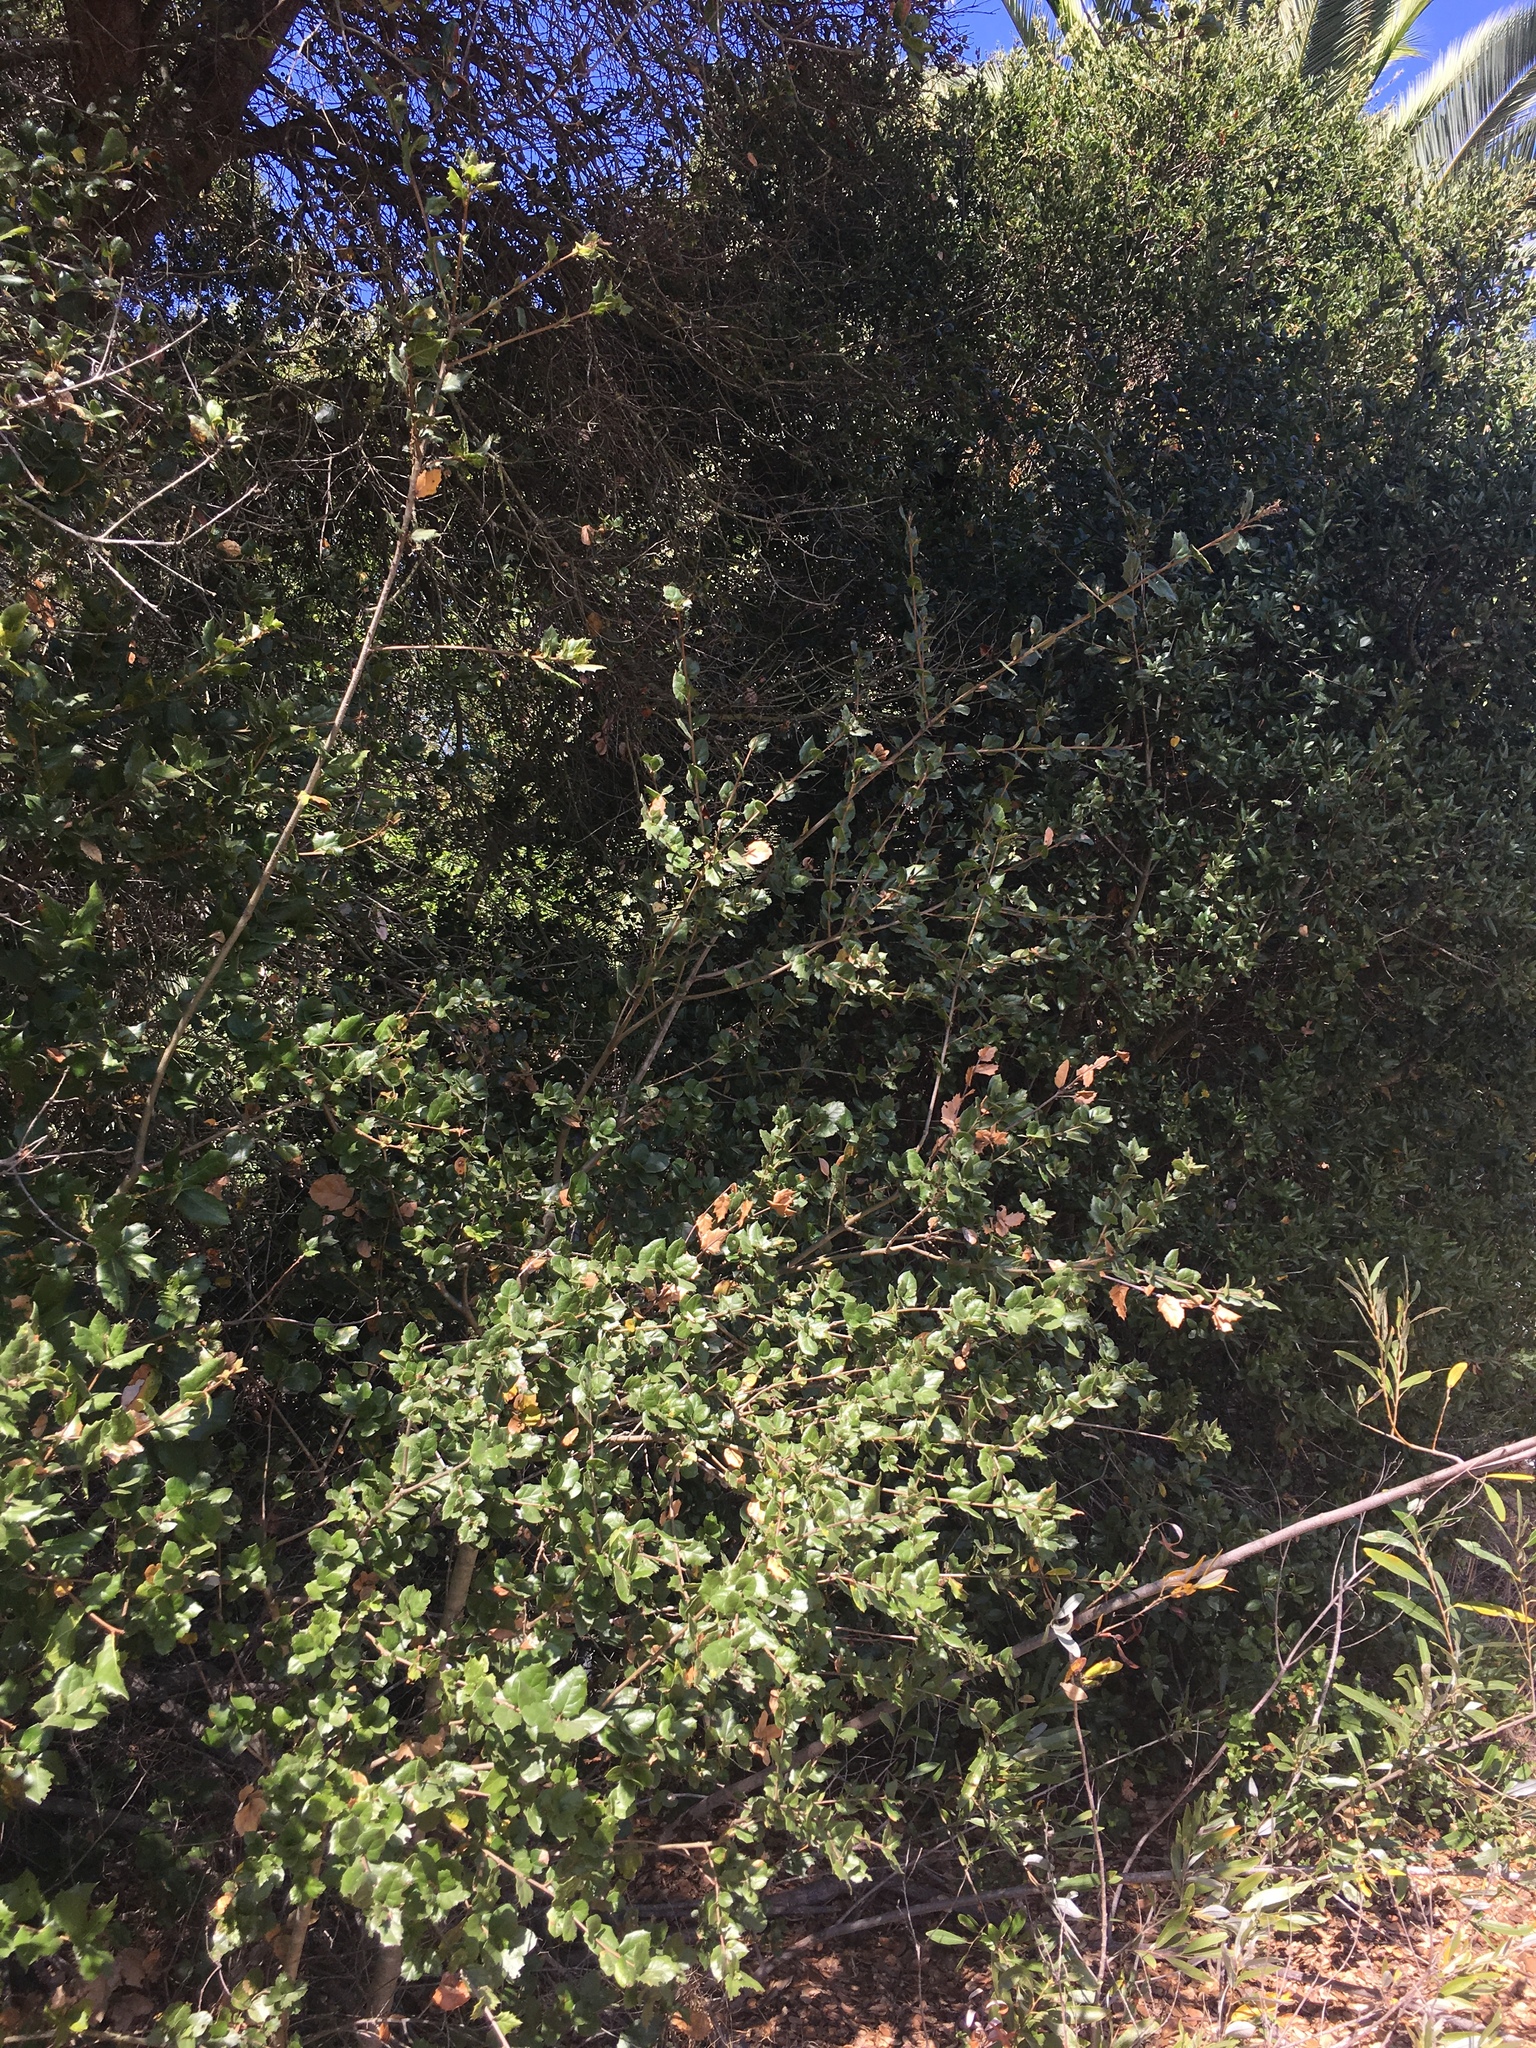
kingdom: Plantae
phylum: Tracheophyta
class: Magnoliopsida
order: Fagales
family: Fagaceae
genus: Quercus
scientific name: Quercus agrifolia
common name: California live oak
